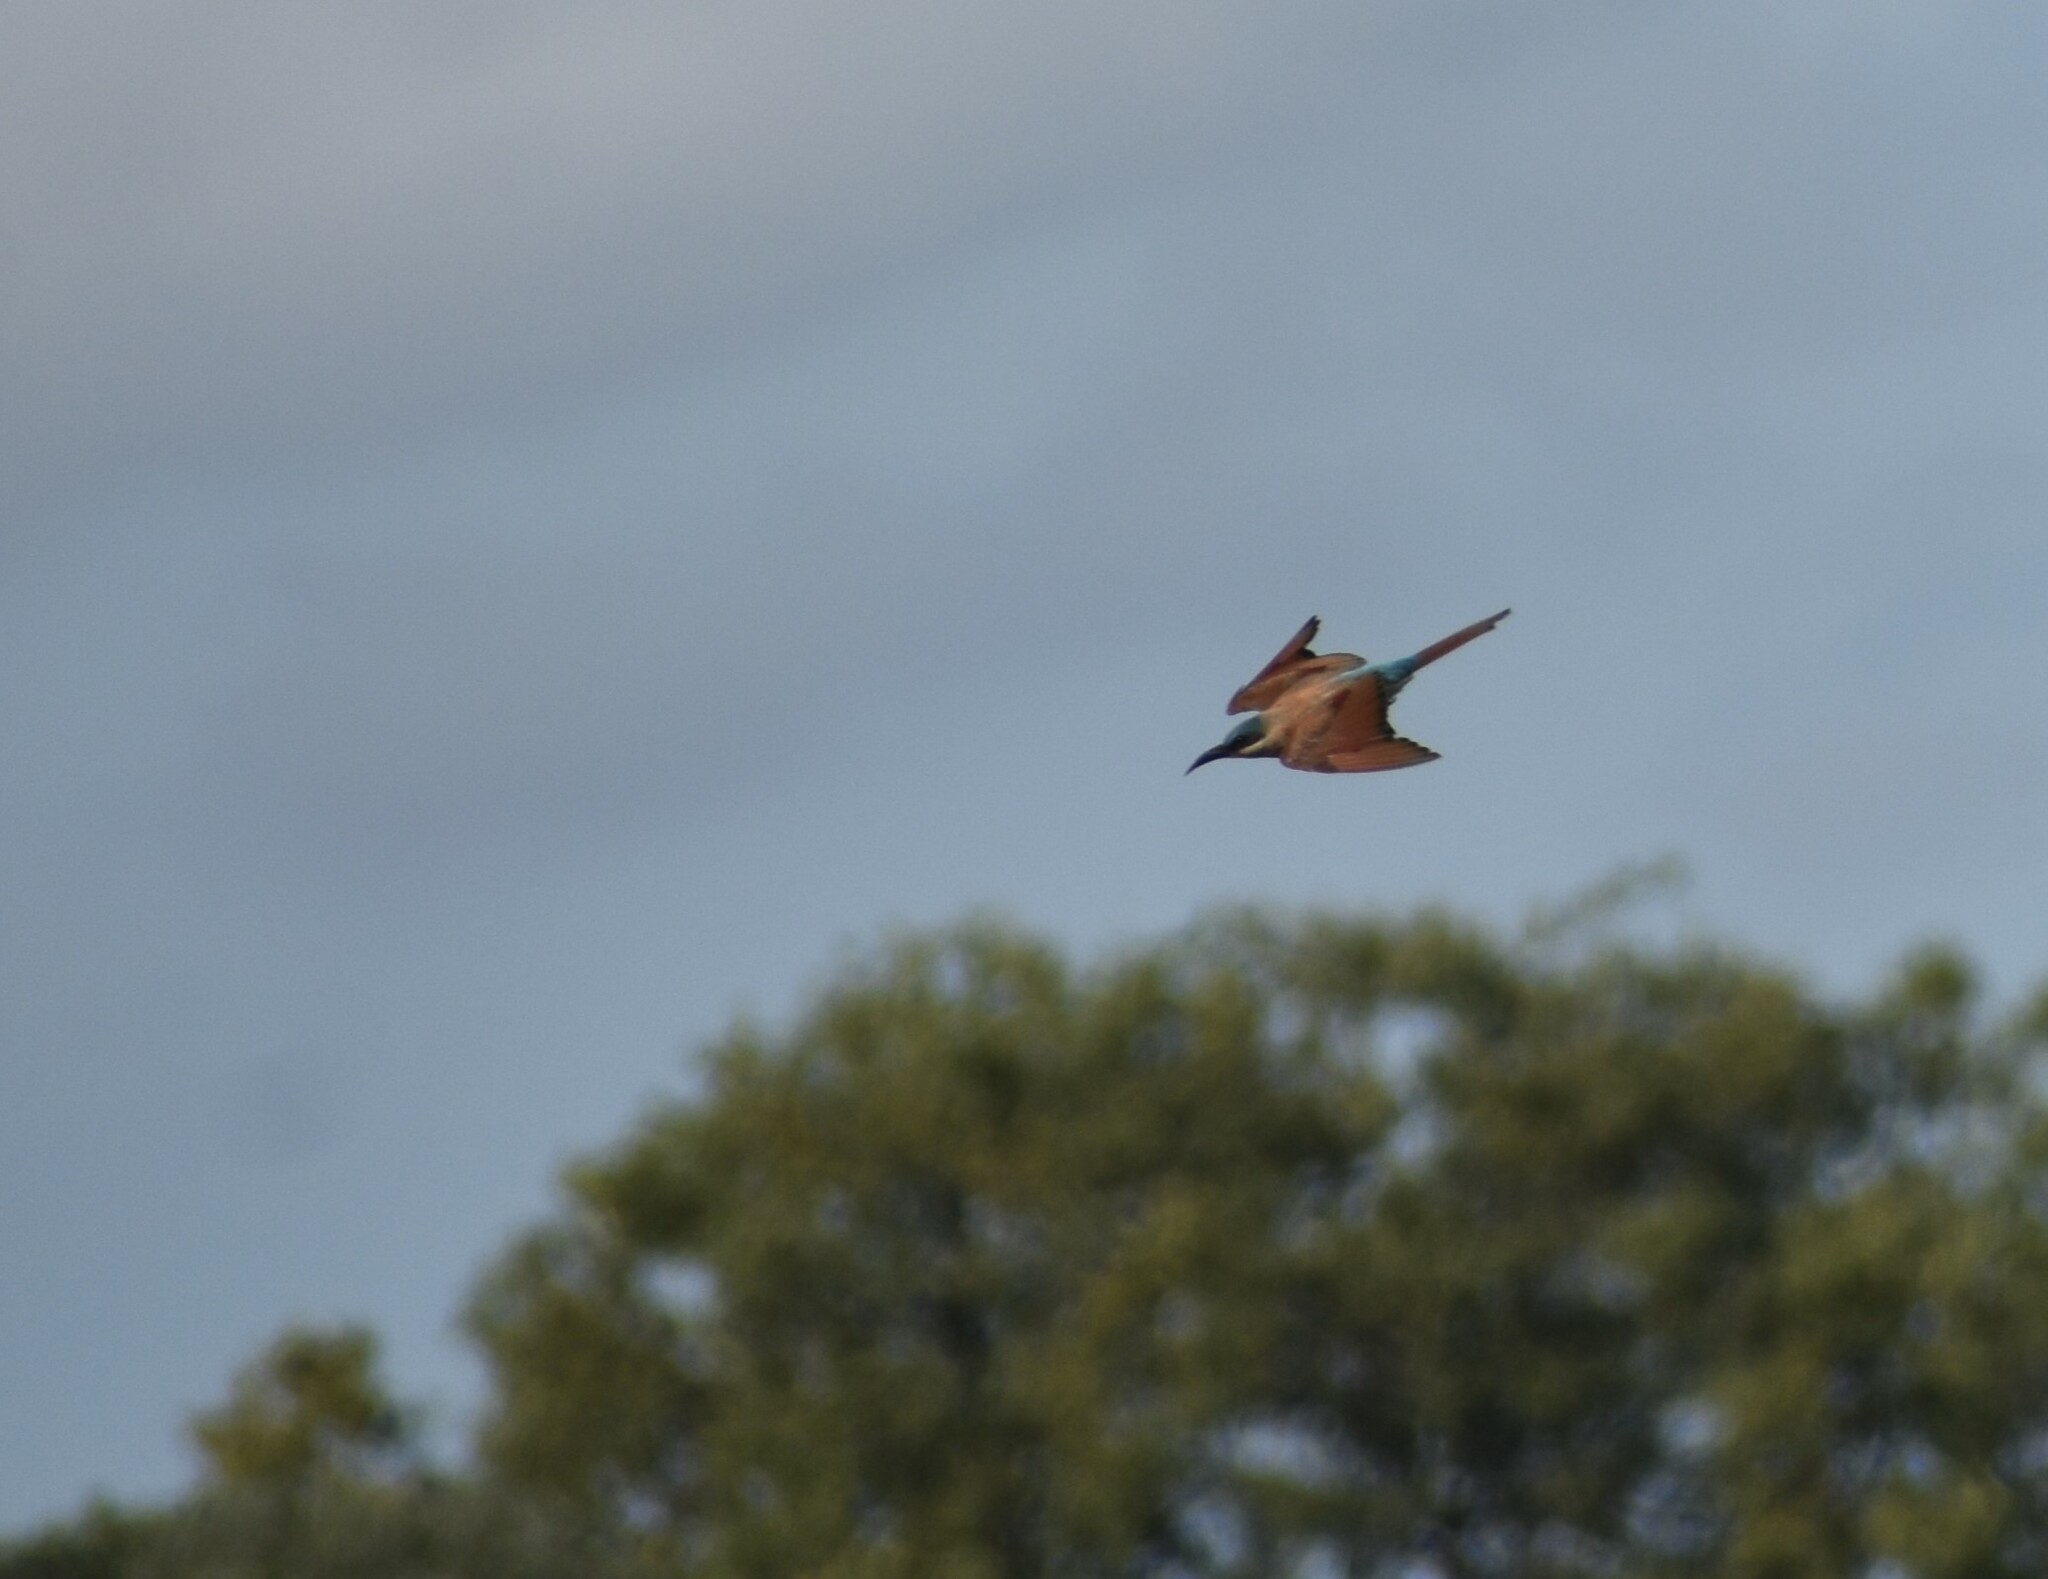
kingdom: Animalia
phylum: Chordata
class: Aves
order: Coraciiformes
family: Meropidae
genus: Merops
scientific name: Merops nubicoides
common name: Southern carmine bee-eater
